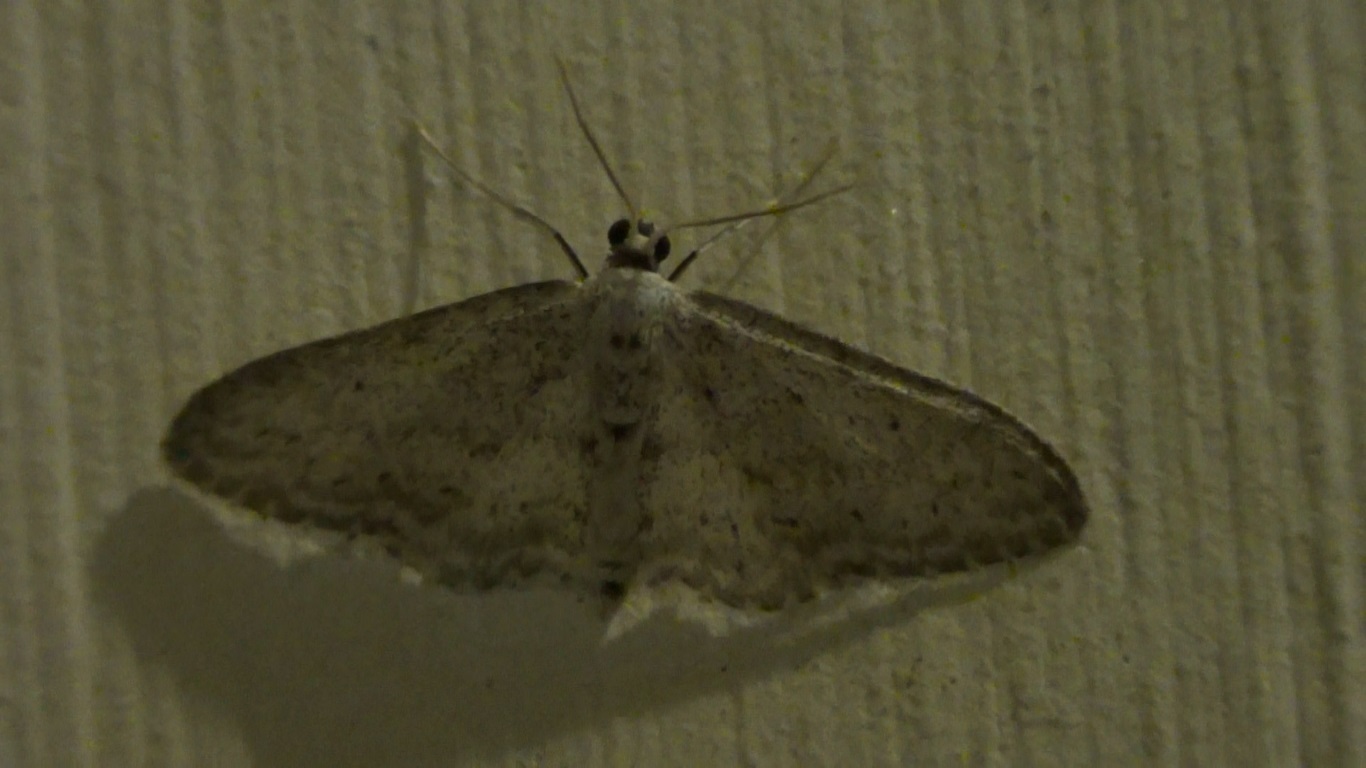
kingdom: Animalia
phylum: Arthropoda
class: Insecta
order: Lepidoptera
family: Geometridae
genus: Idaea
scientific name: Idaea seriata
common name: Small dusty wave
